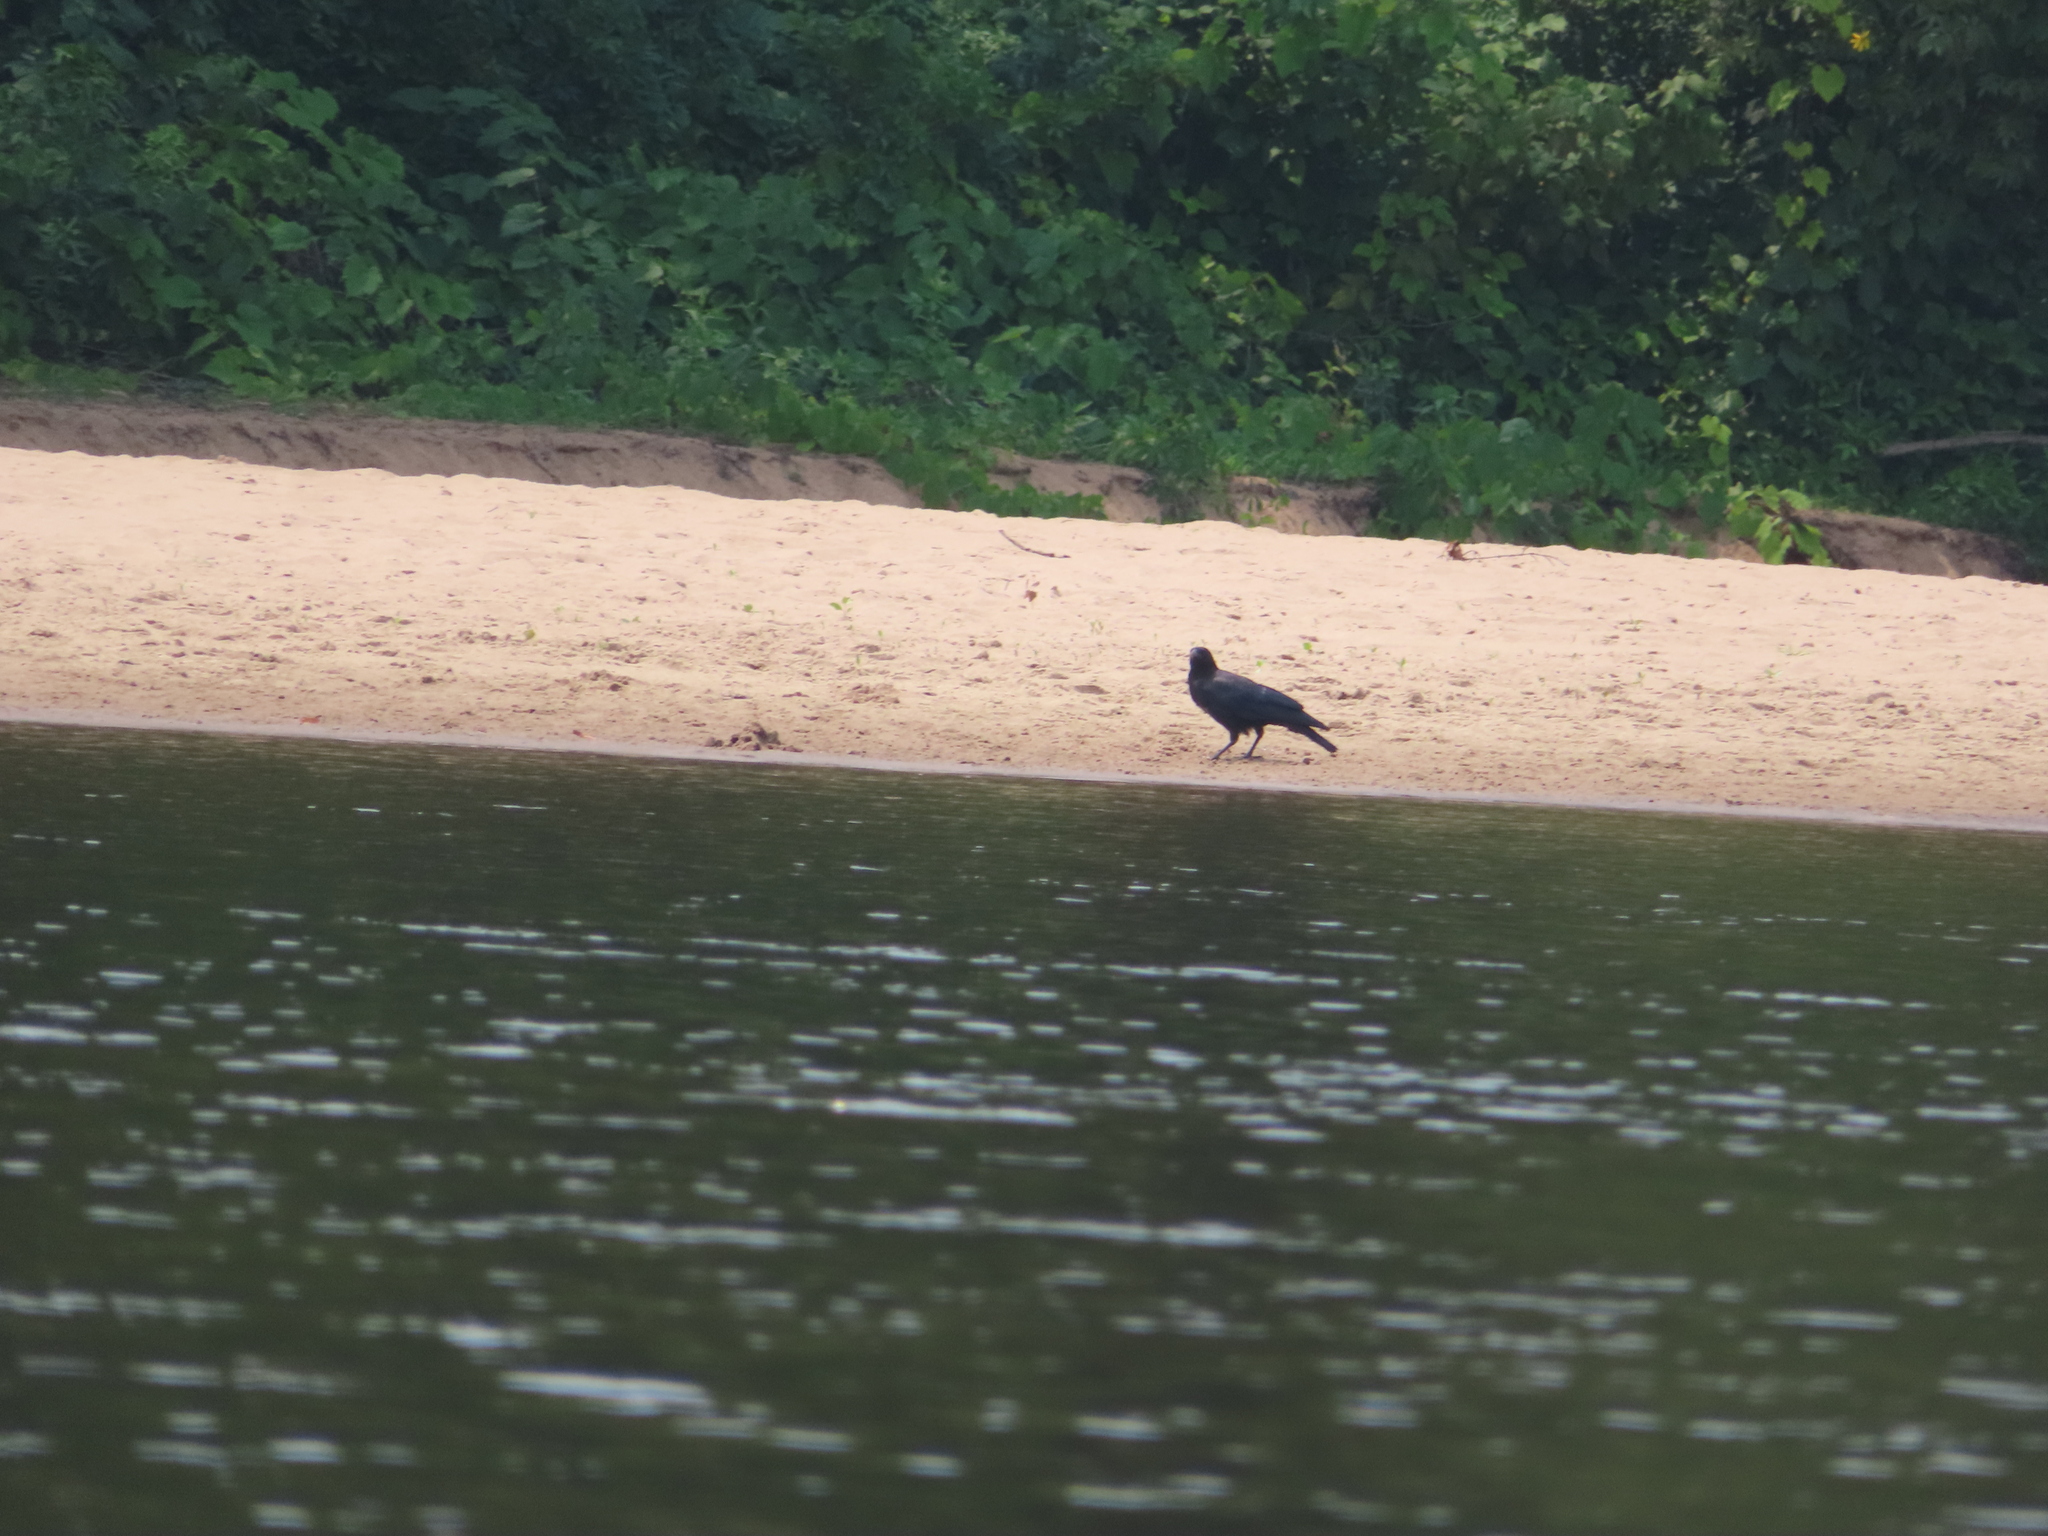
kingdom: Animalia
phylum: Chordata
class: Aves
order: Passeriformes
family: Corvidae
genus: Corvus
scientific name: Corvus brachyrhynchos
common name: American crow
